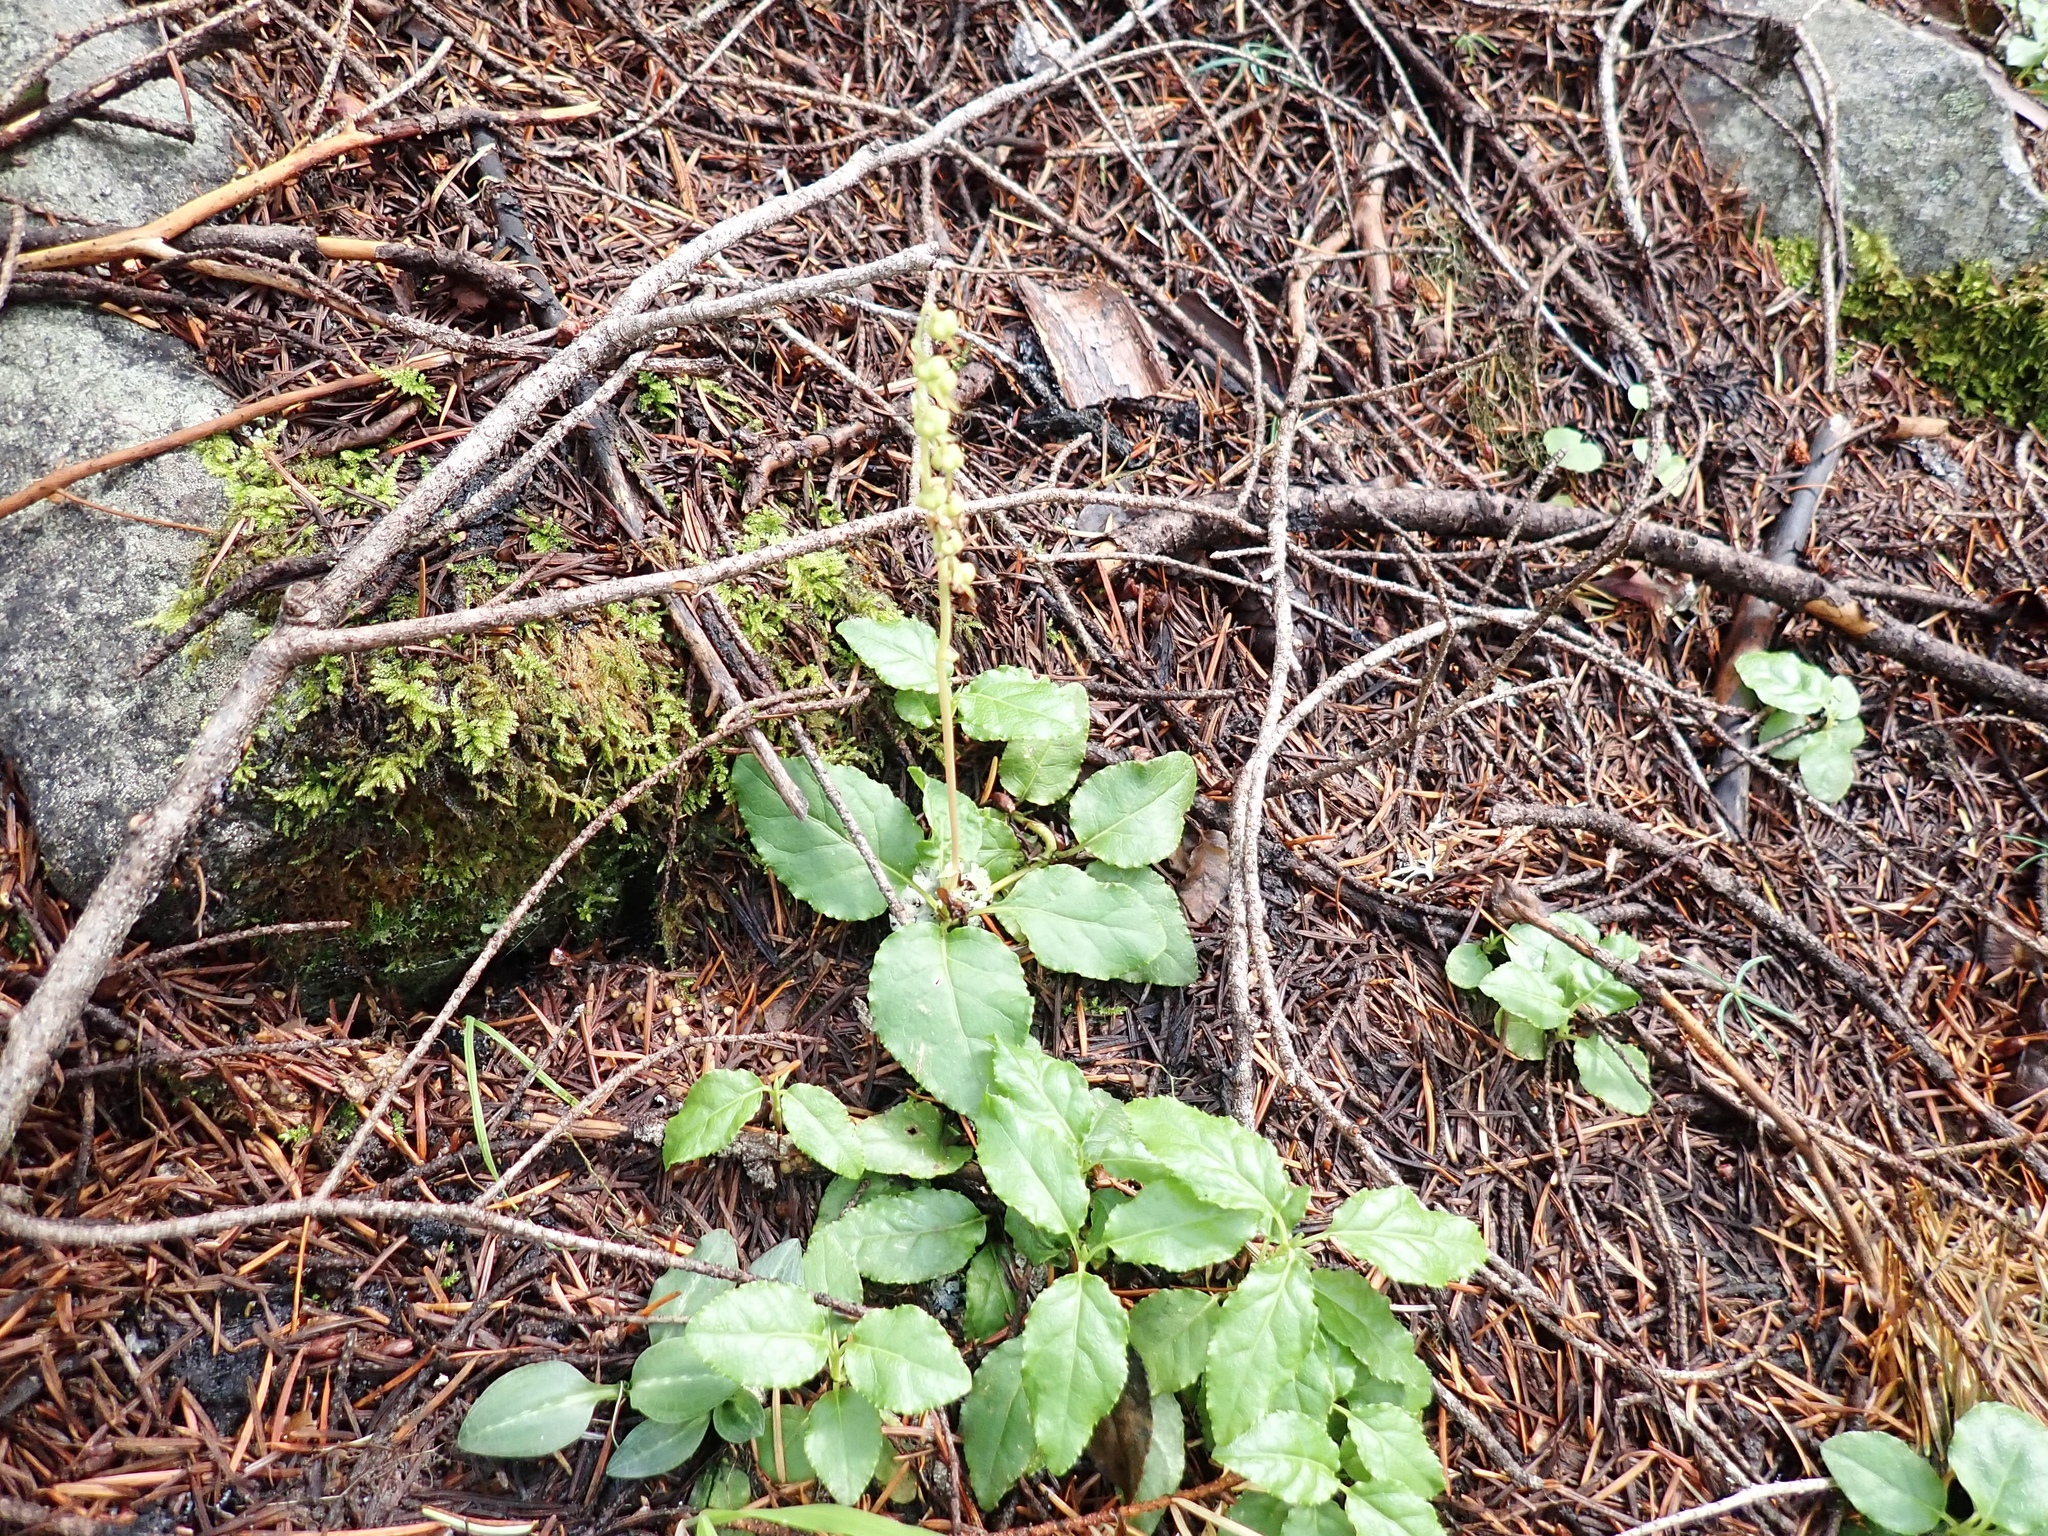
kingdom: Plantae
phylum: Tracheophyta
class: Magnoliopsida
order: Ericales
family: Ericaceae
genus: Orthilia
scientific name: Orthilia secunda
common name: One-sided orthilia
